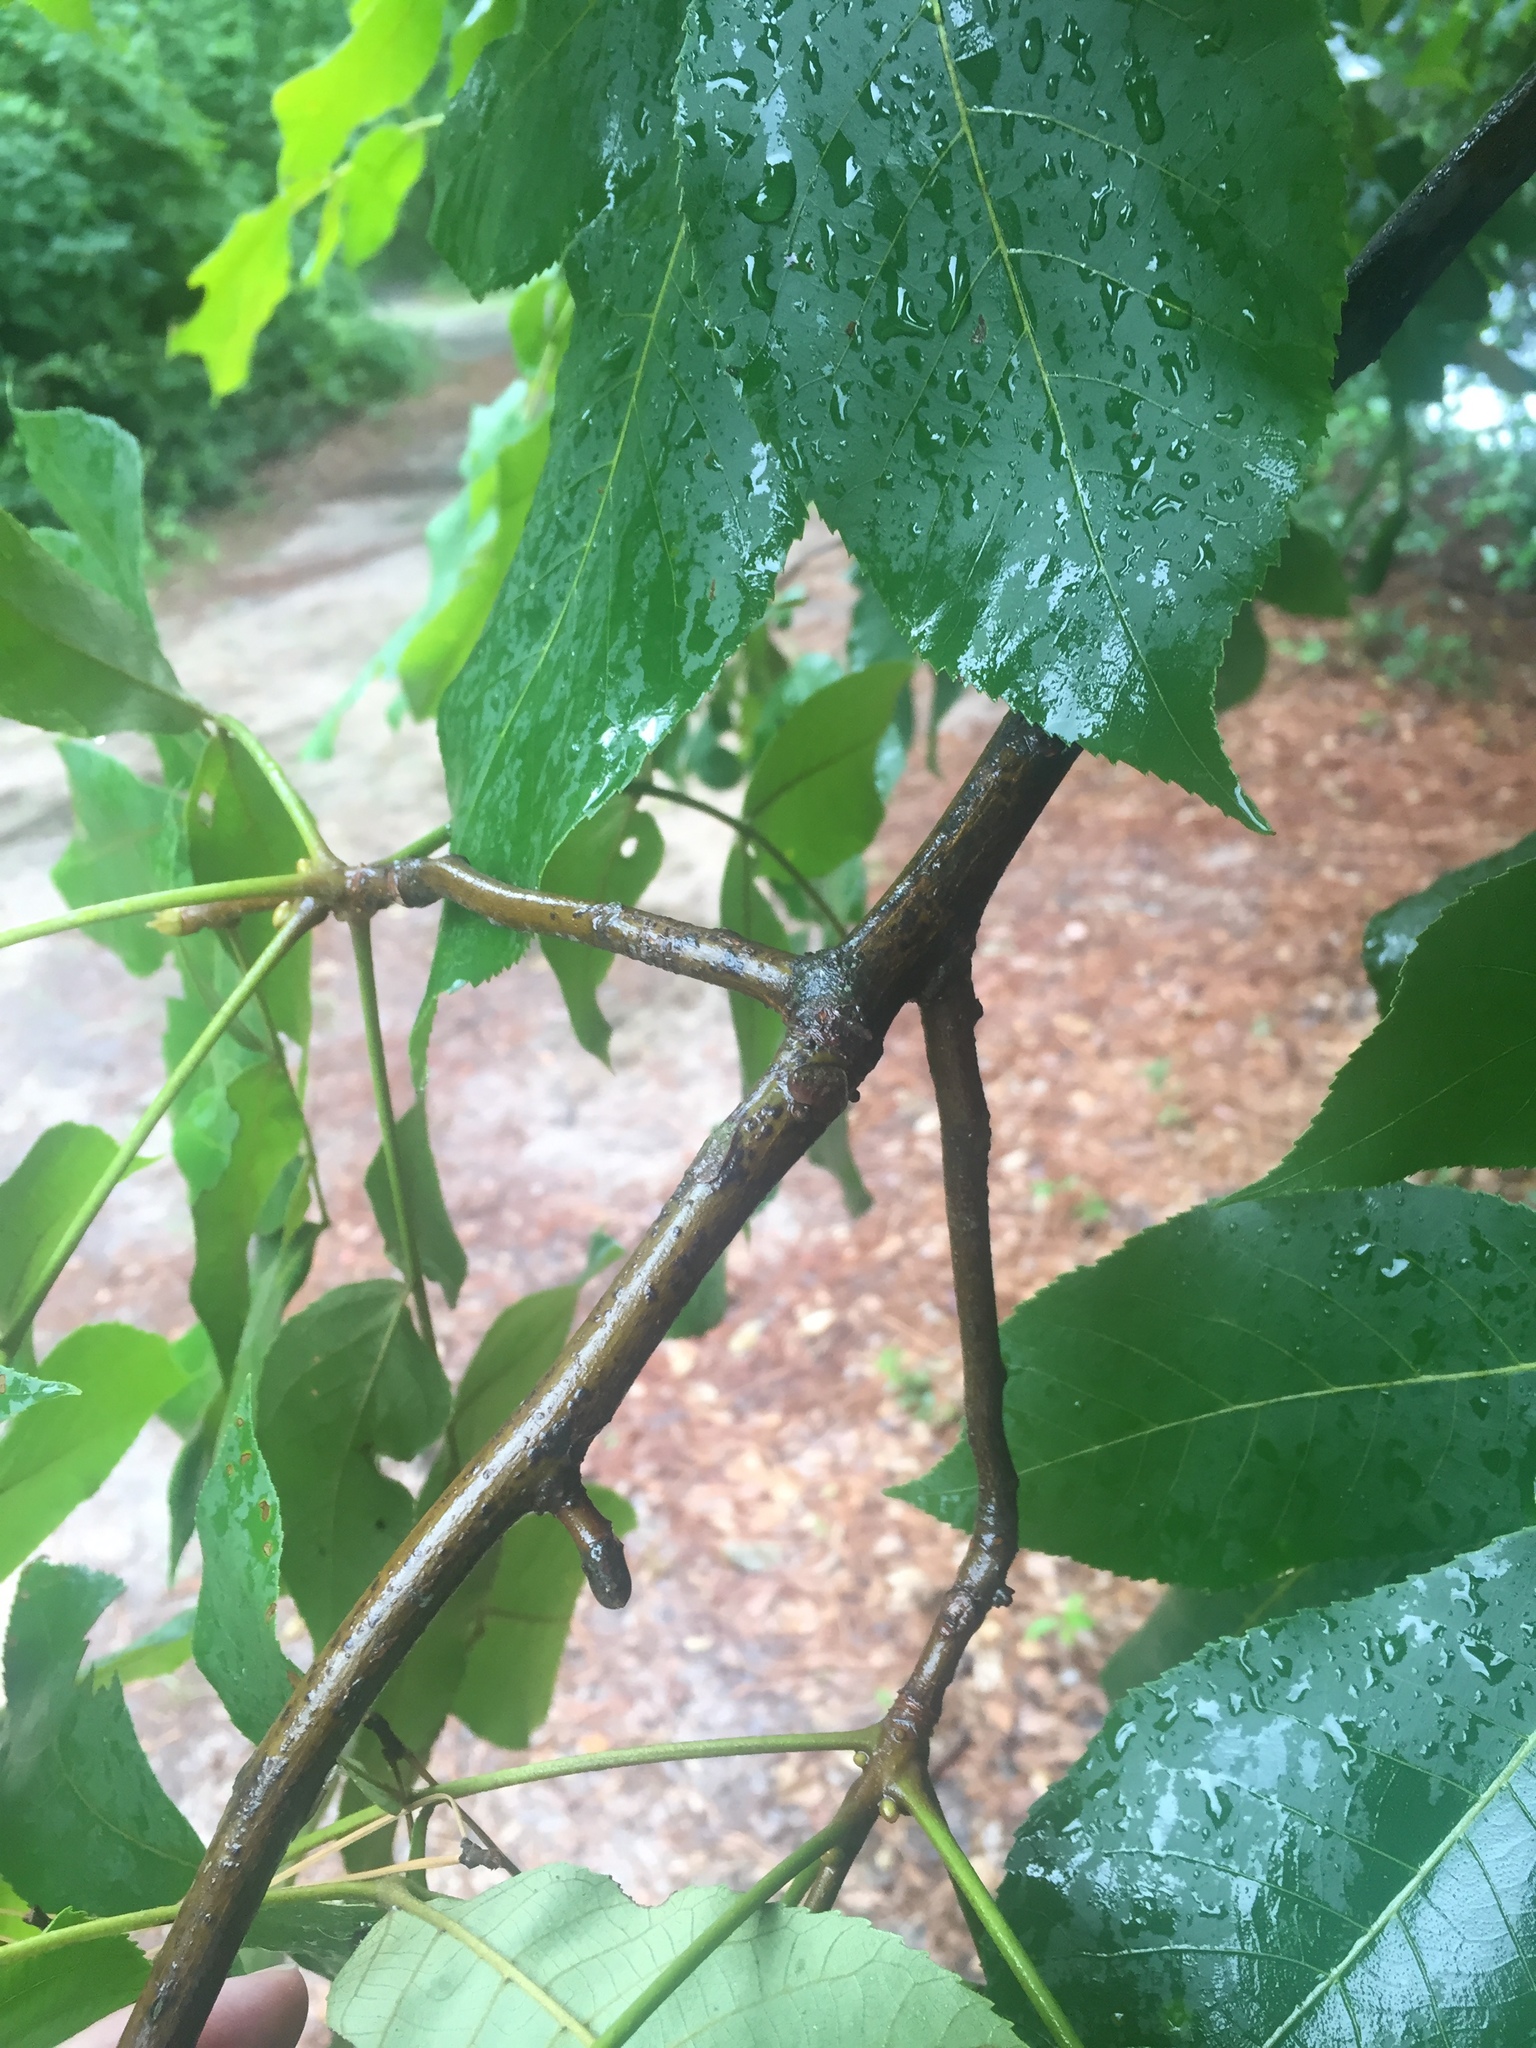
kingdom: Plantae
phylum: Tracheophyta
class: Magnoliopsida
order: Fagales
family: Juglandaceae
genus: Carya
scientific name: Carya illinoinensis
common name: Pecan
